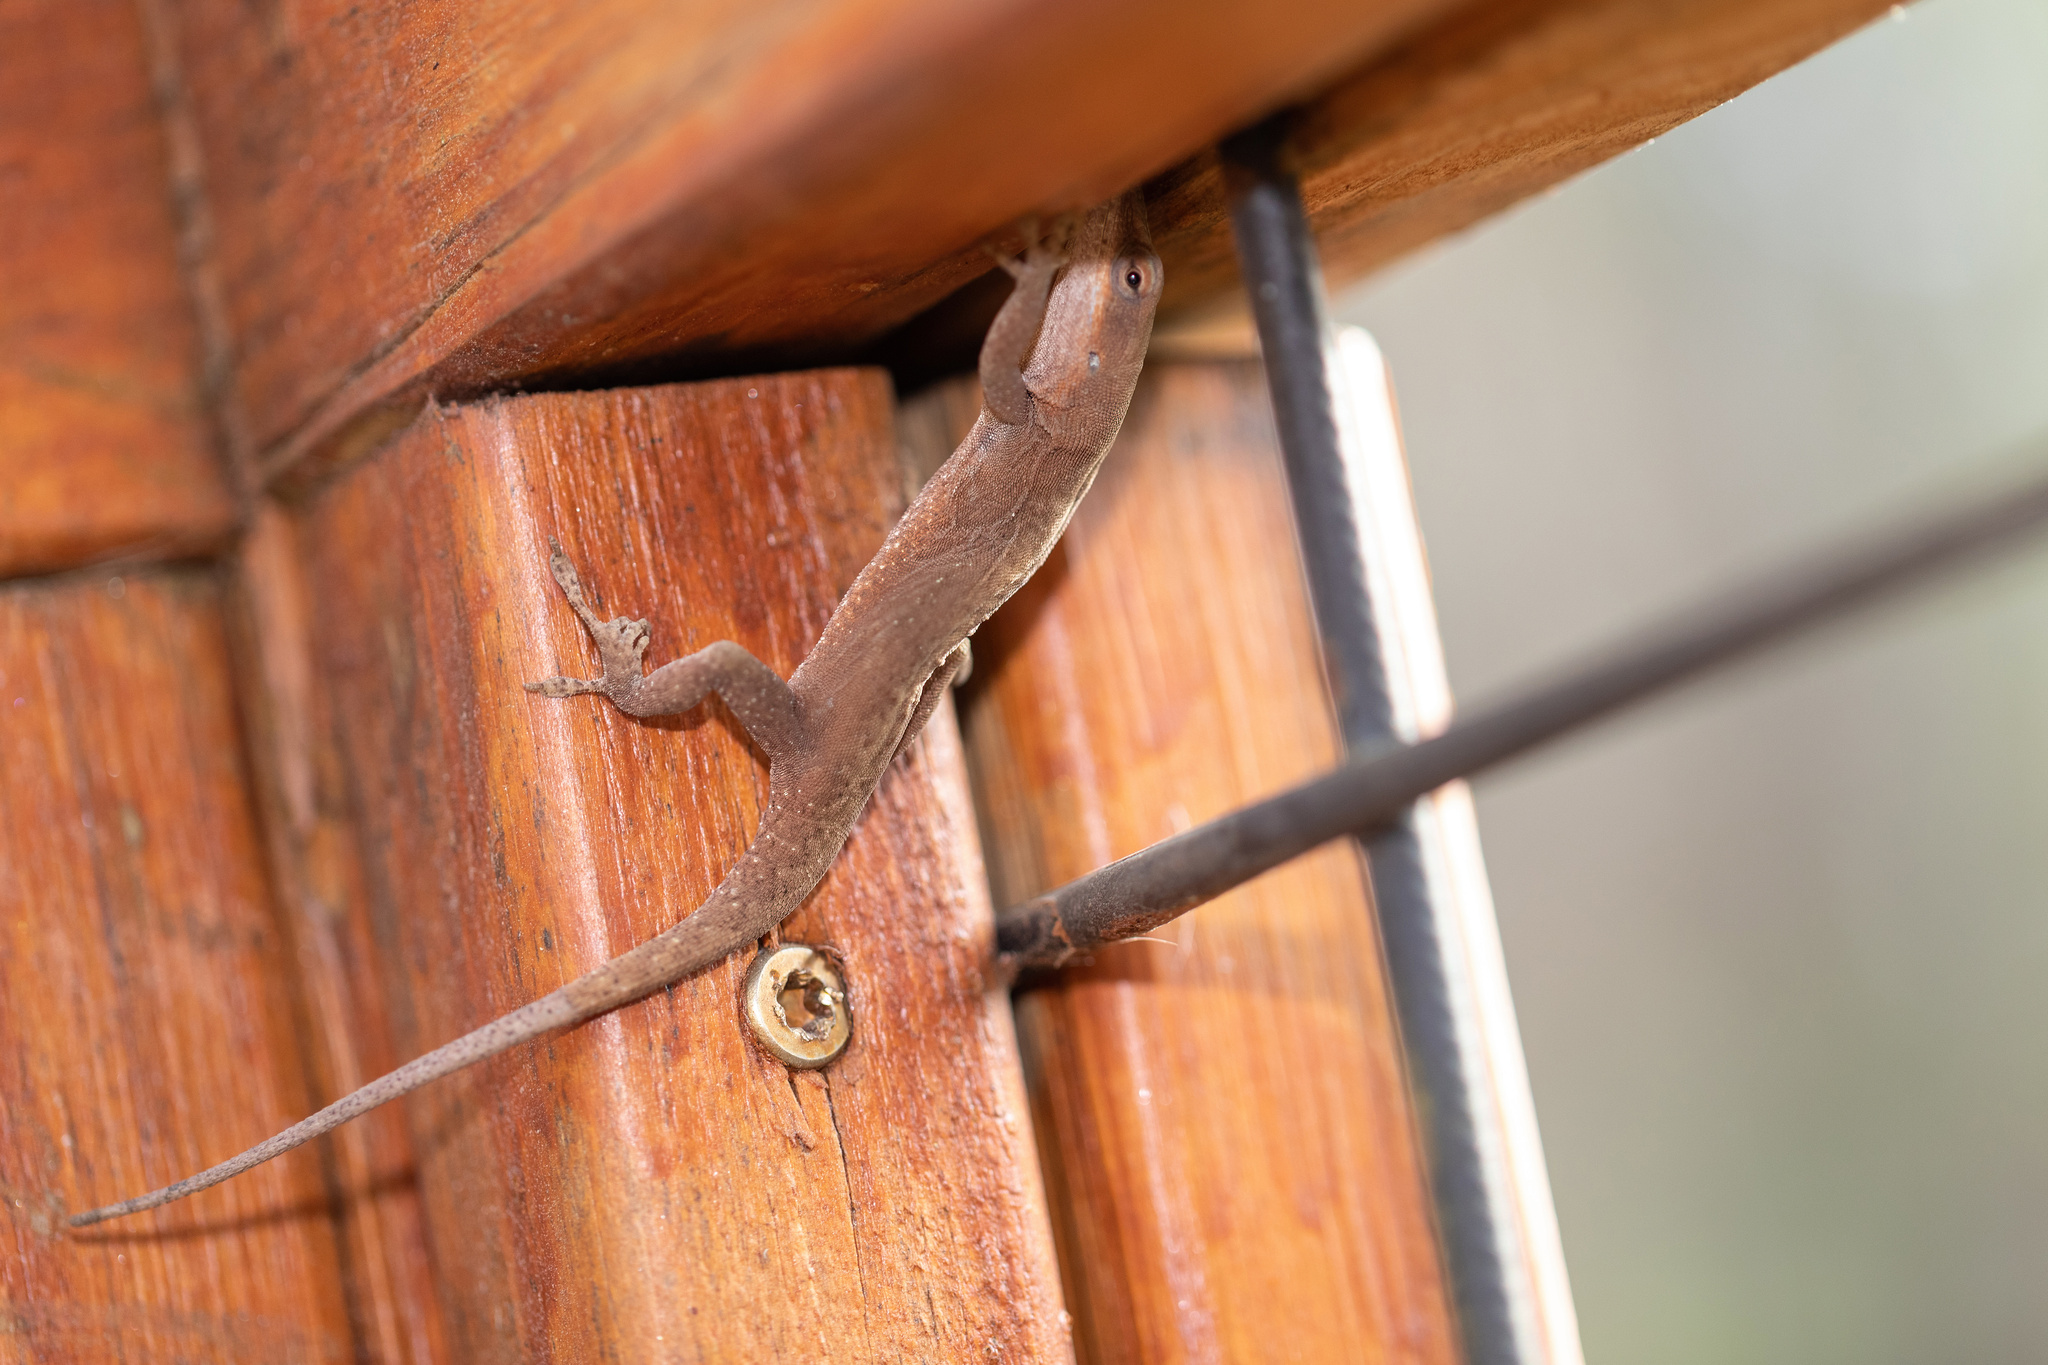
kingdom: Animalia
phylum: Chordata
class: Squamata
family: Dactyloidae
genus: Anolis
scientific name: Anolis carolinensis
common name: Green anole
